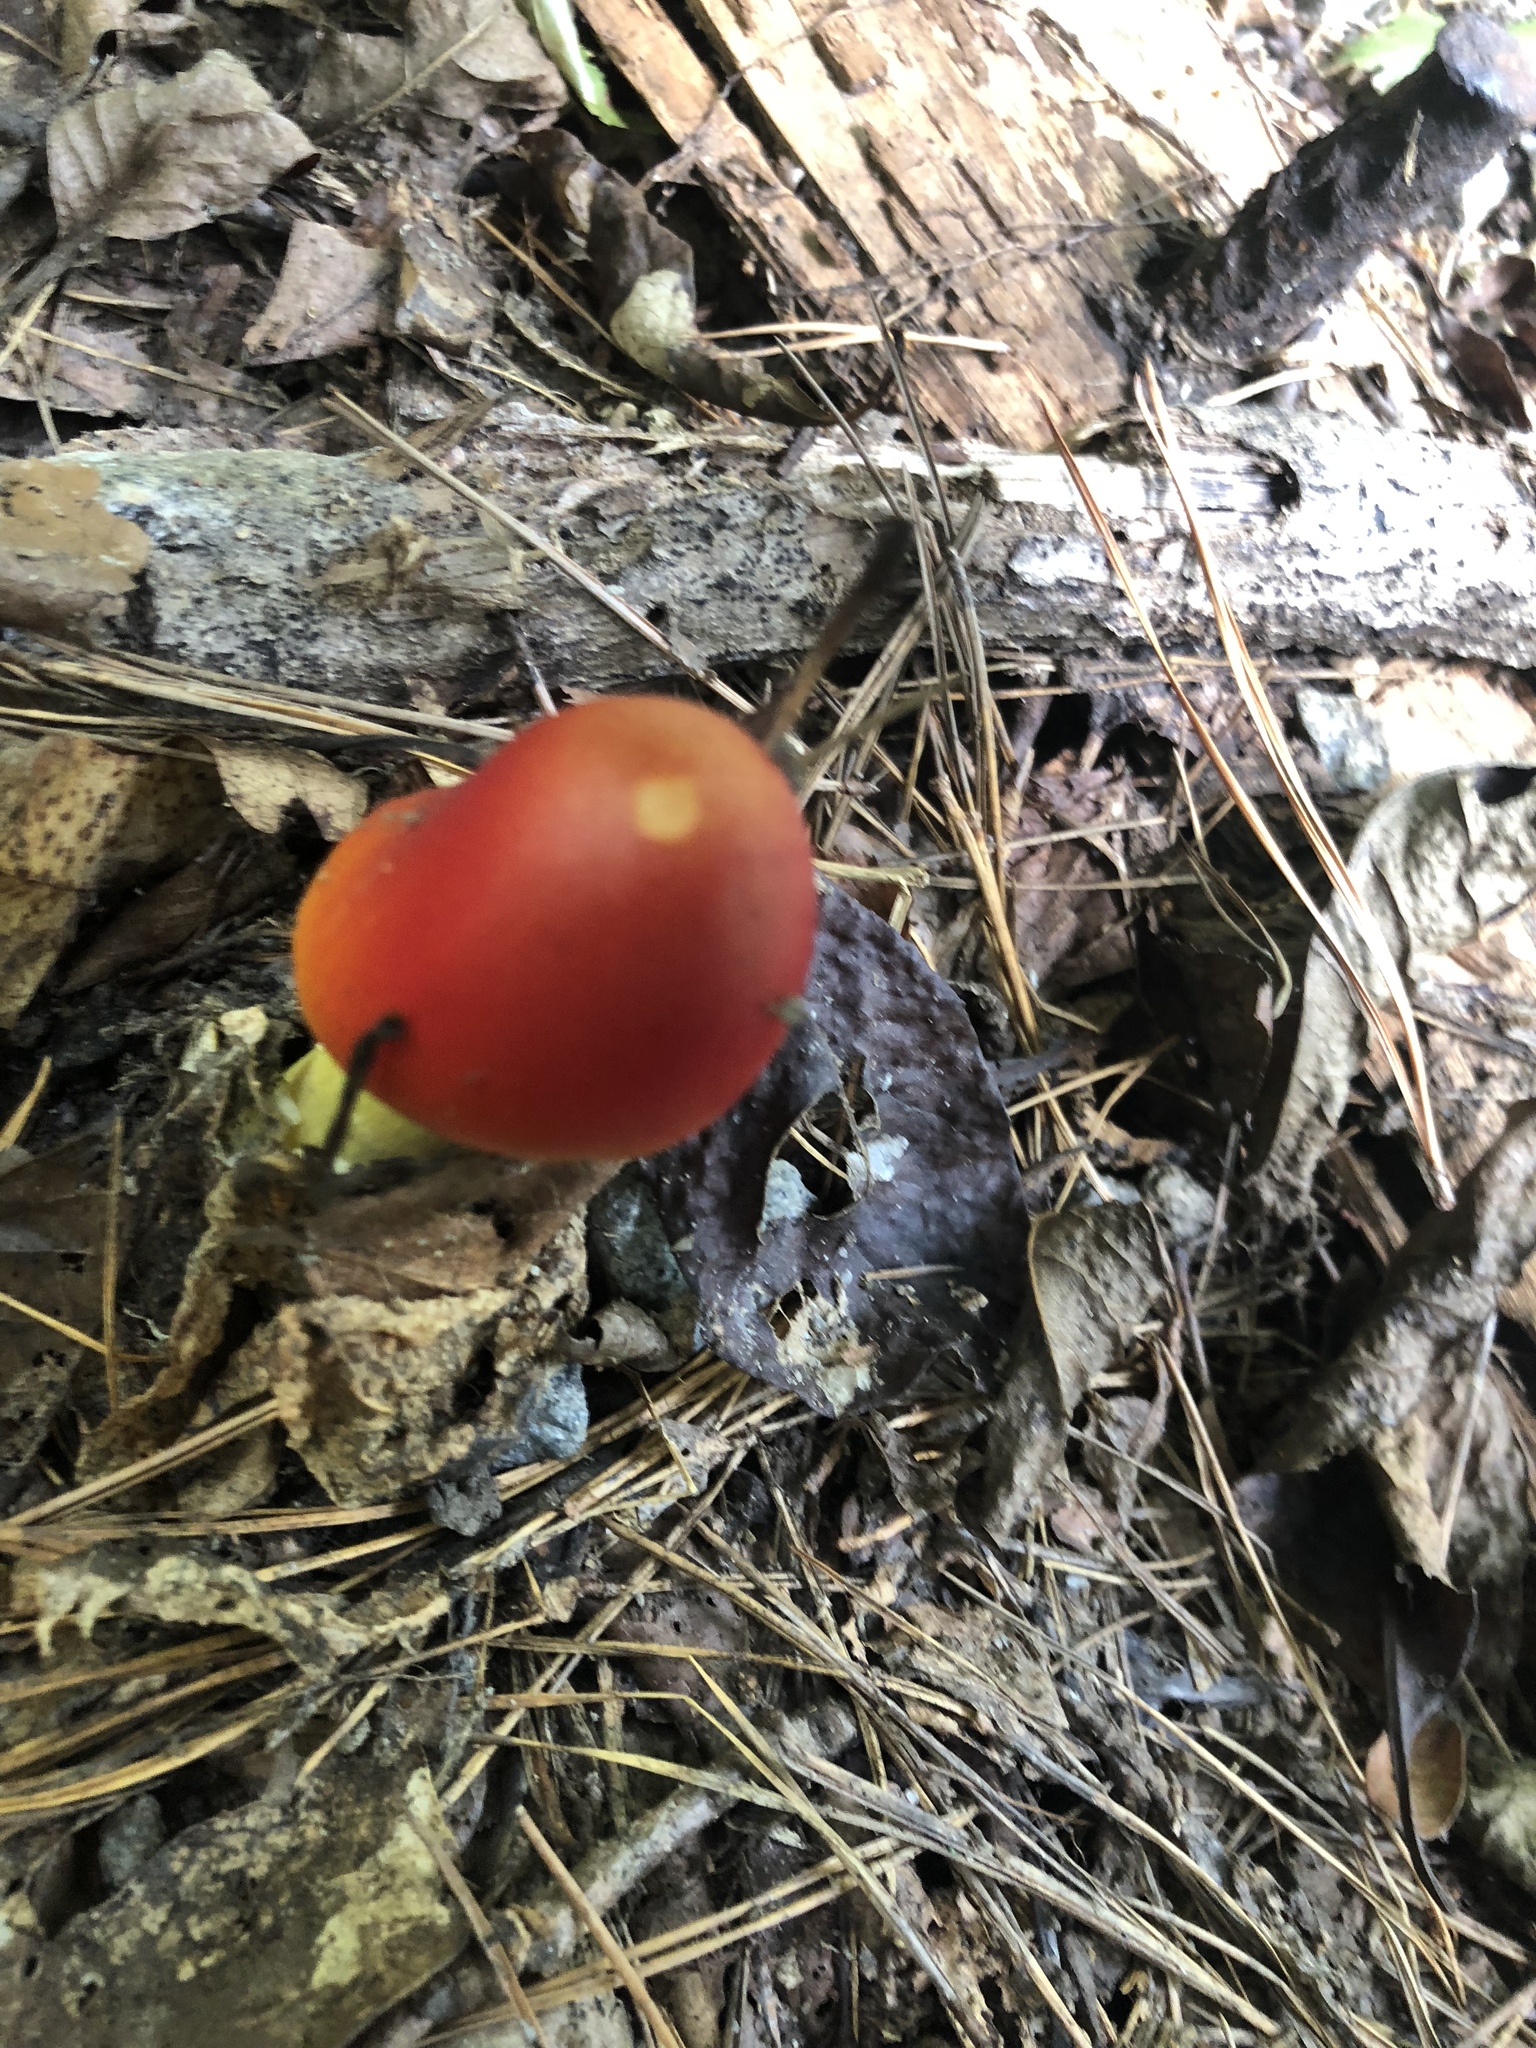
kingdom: Fungi
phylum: Basidiomycota
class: Agaricomycetes
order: Agaricales
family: Amanitaceae
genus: Amanita
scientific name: Amanita jacksonii
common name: Jackson's slender caesar
